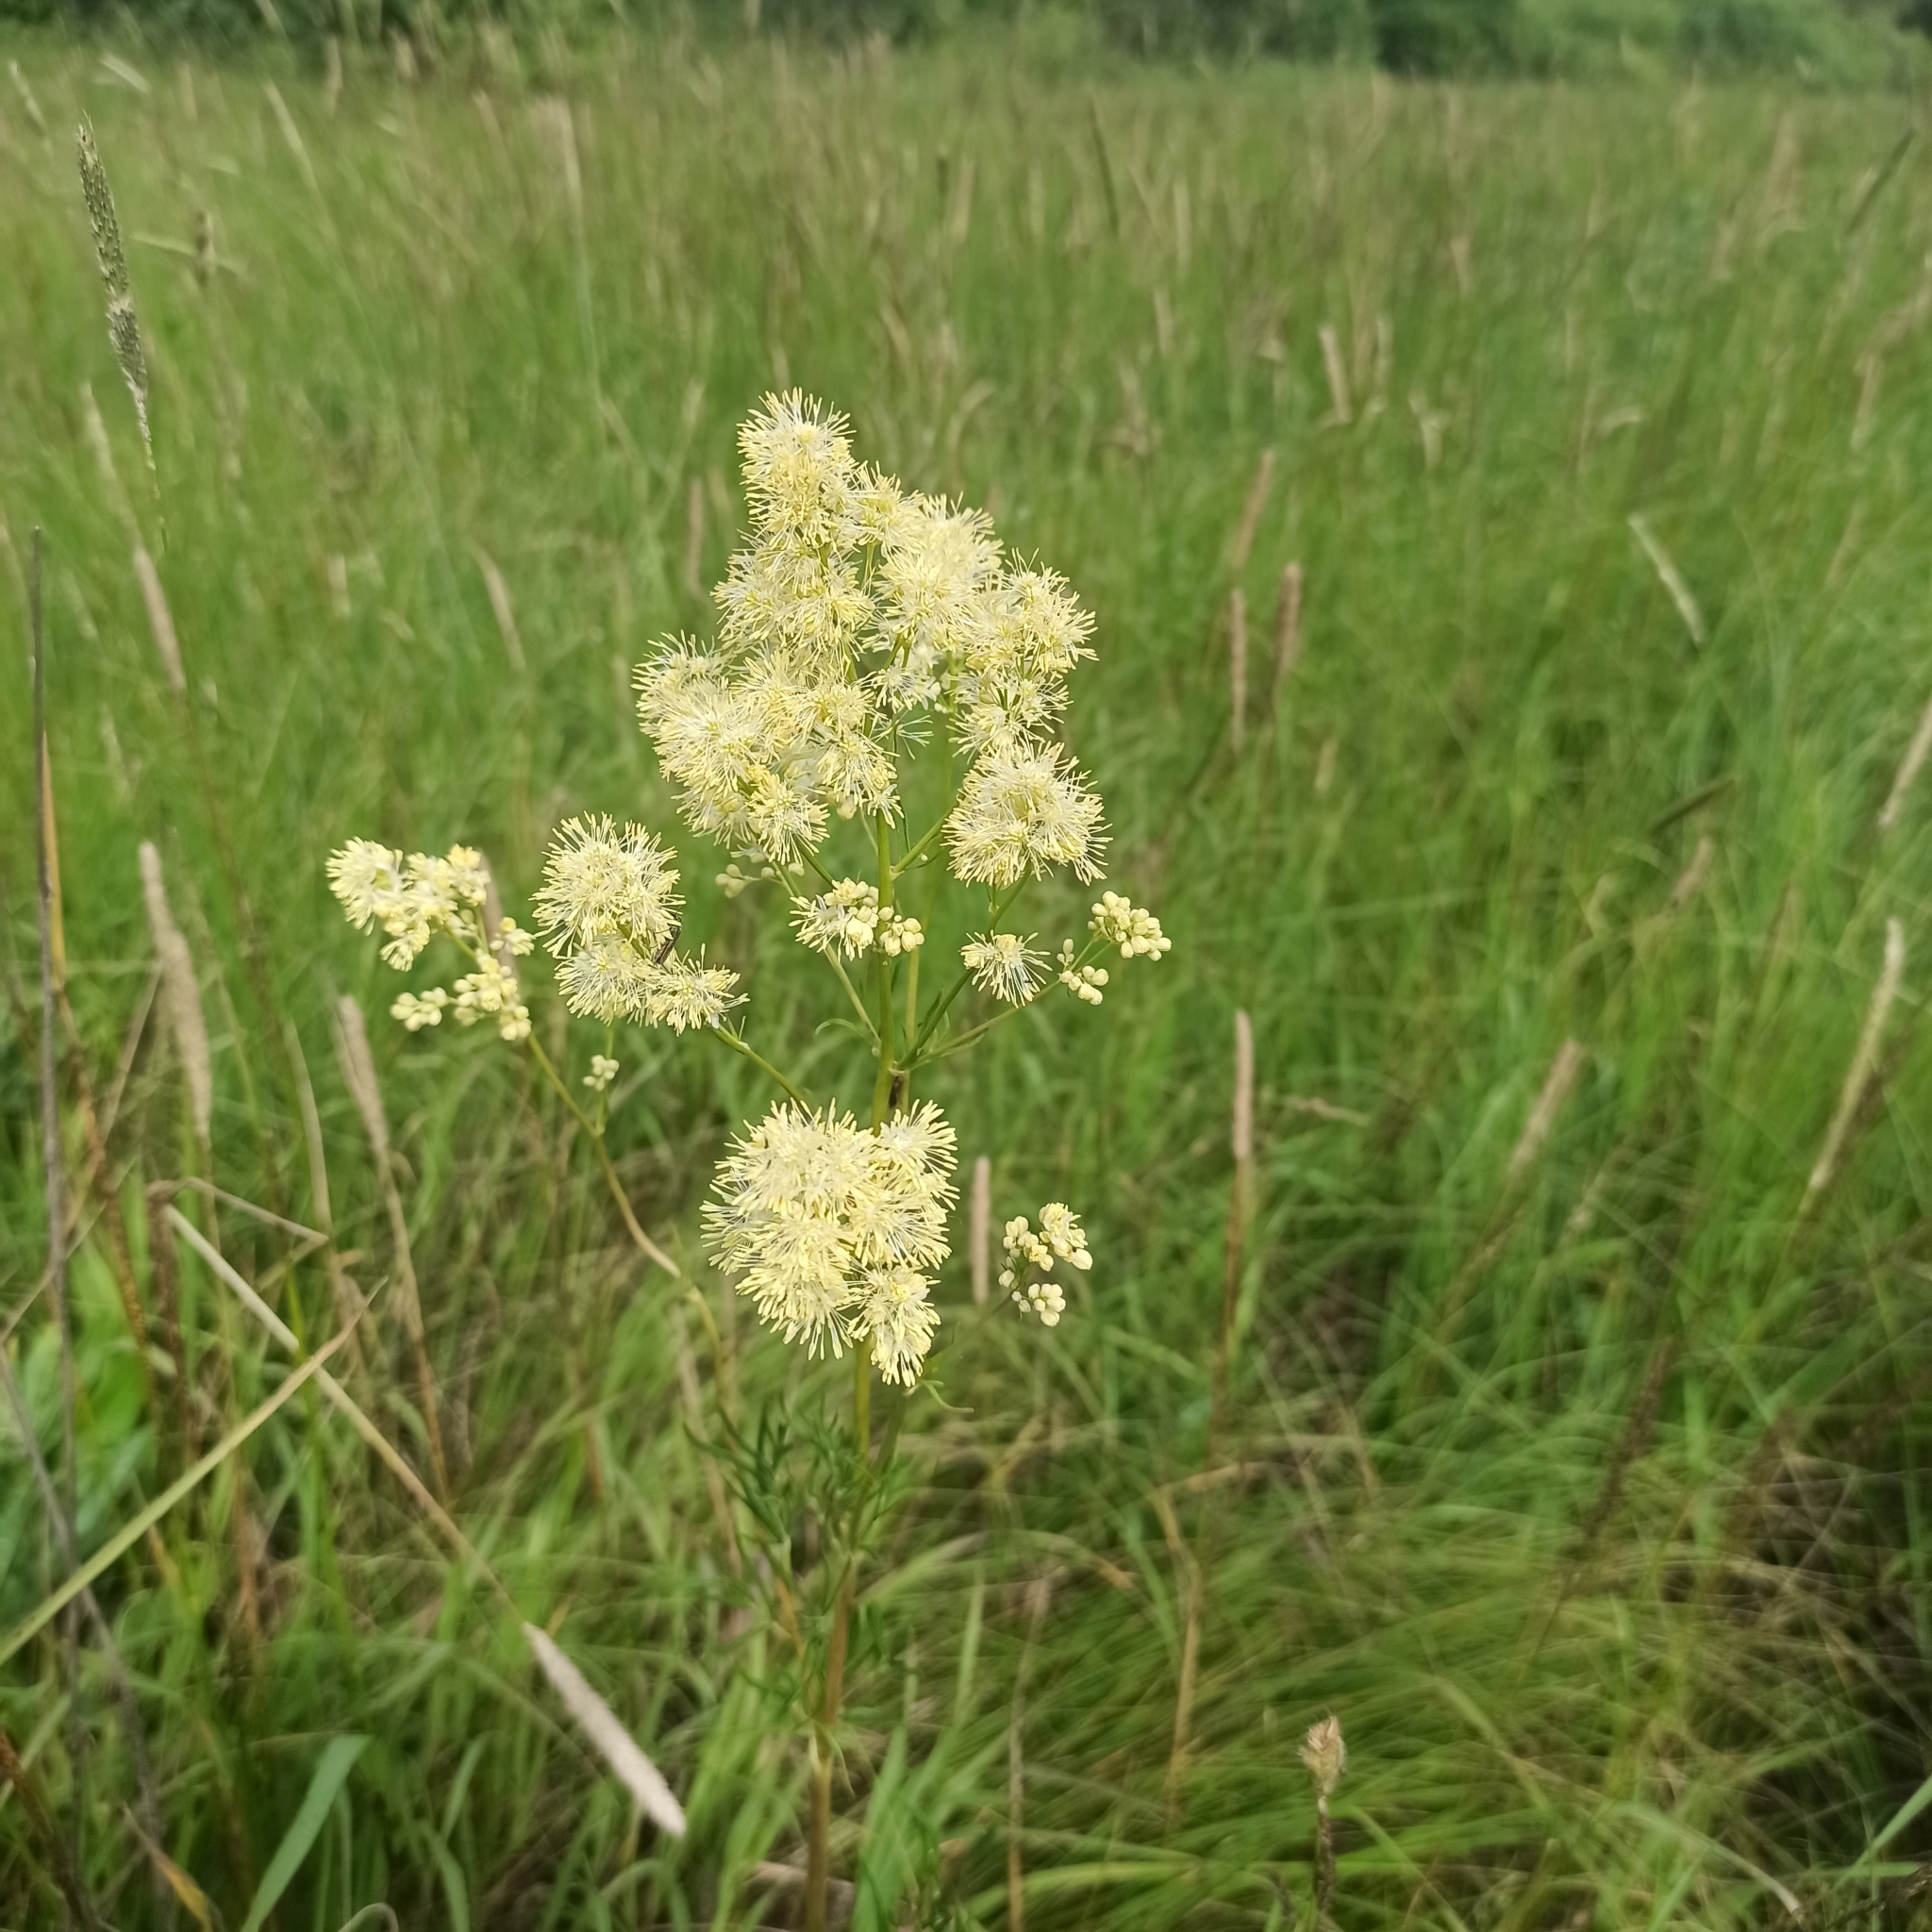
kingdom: Plantae
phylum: Tracheophyta
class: Magnoliopsida
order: Ranunculales
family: Ranunculaceae
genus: Thalictrum
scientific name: Thalictrum lucidum
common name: Shining meadow-rue
